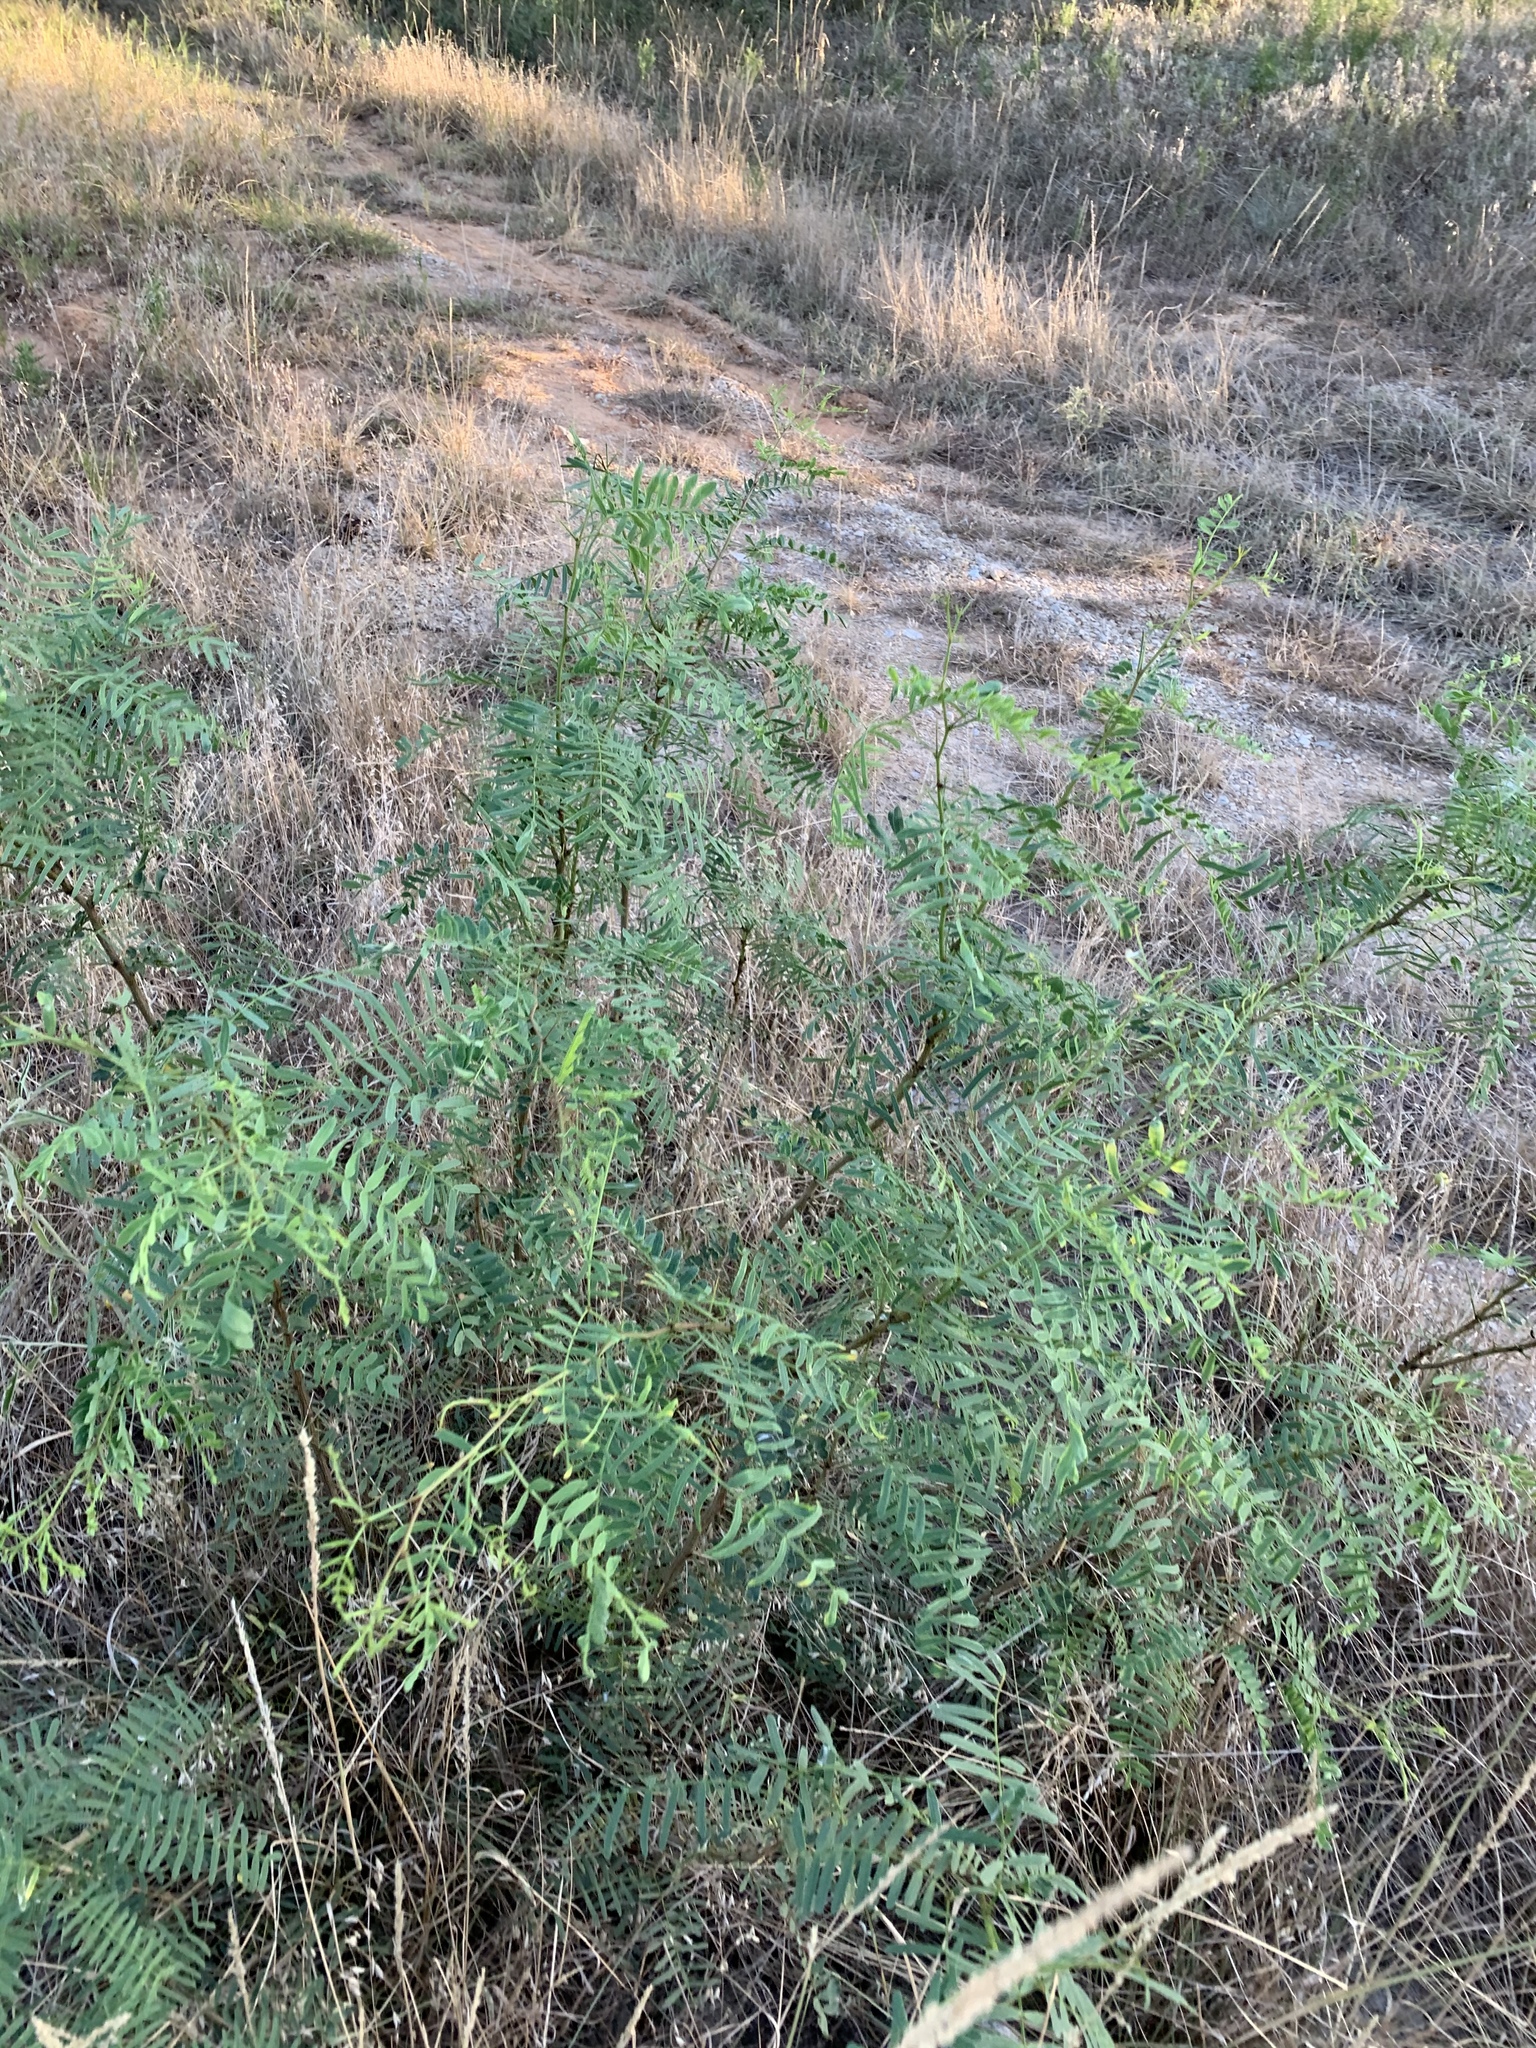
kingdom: Plantae
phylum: Tracheophyta
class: Magnoliopsida
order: Fabales
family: Fabaceae
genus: Prosopis
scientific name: Prosopis glandulosa
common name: Honey mesquite
